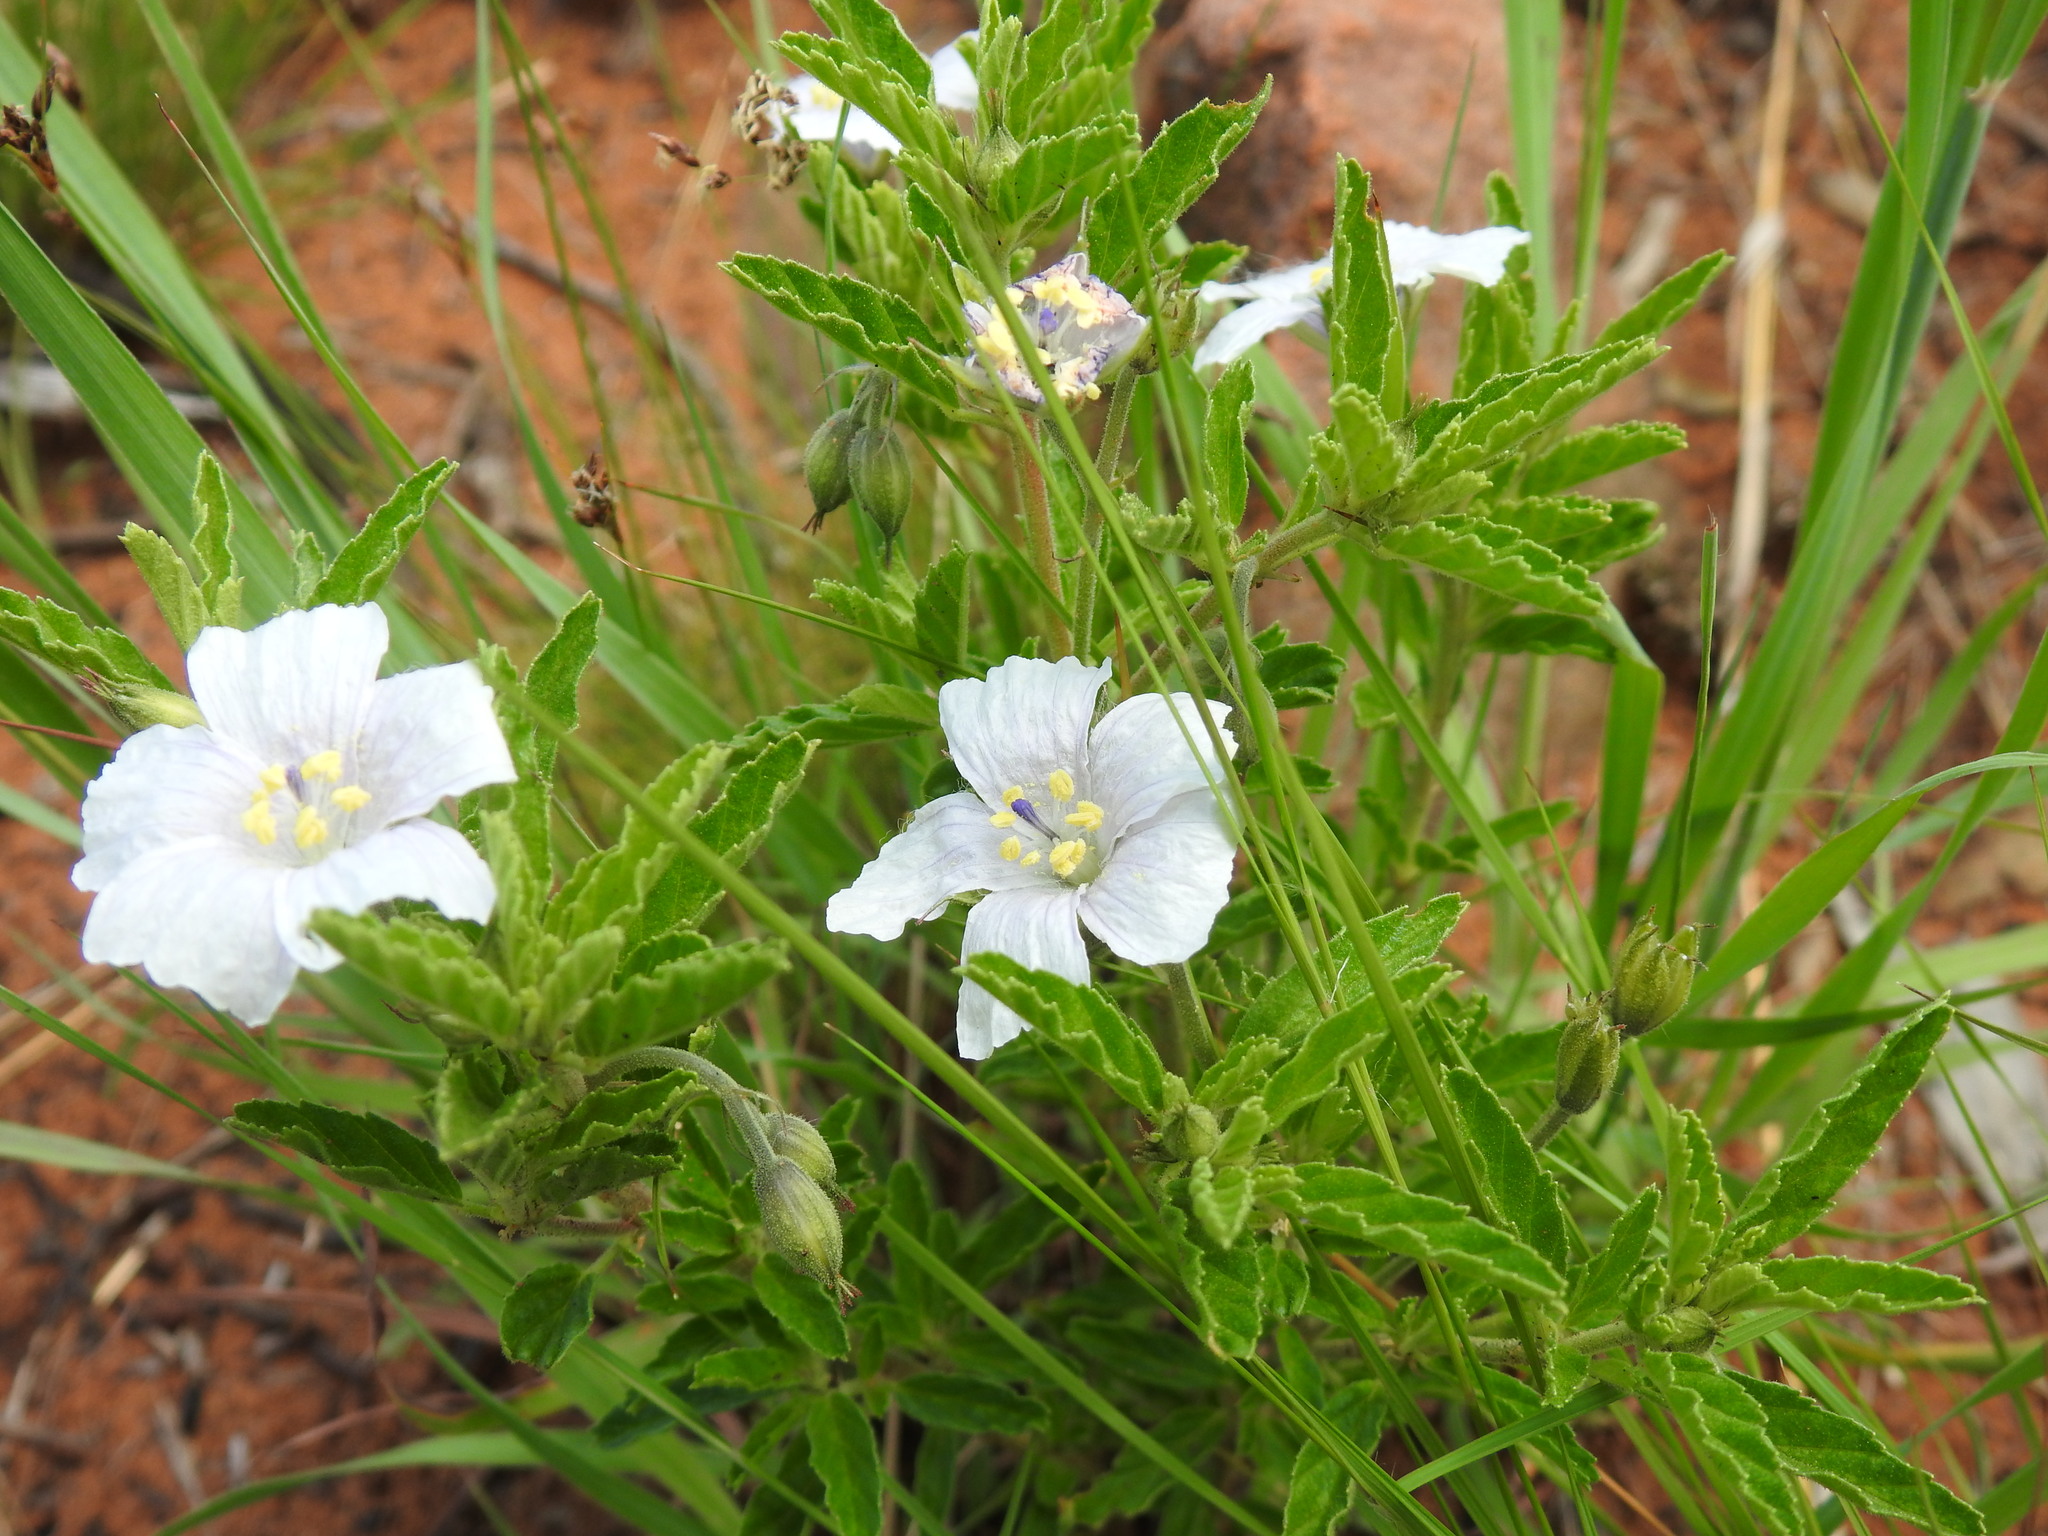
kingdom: Plantae
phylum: Tracheophyta
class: Magnoliopsida
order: Geraniales
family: Geraniaceae
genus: Monsonia
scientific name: Monsonia angustifolia
